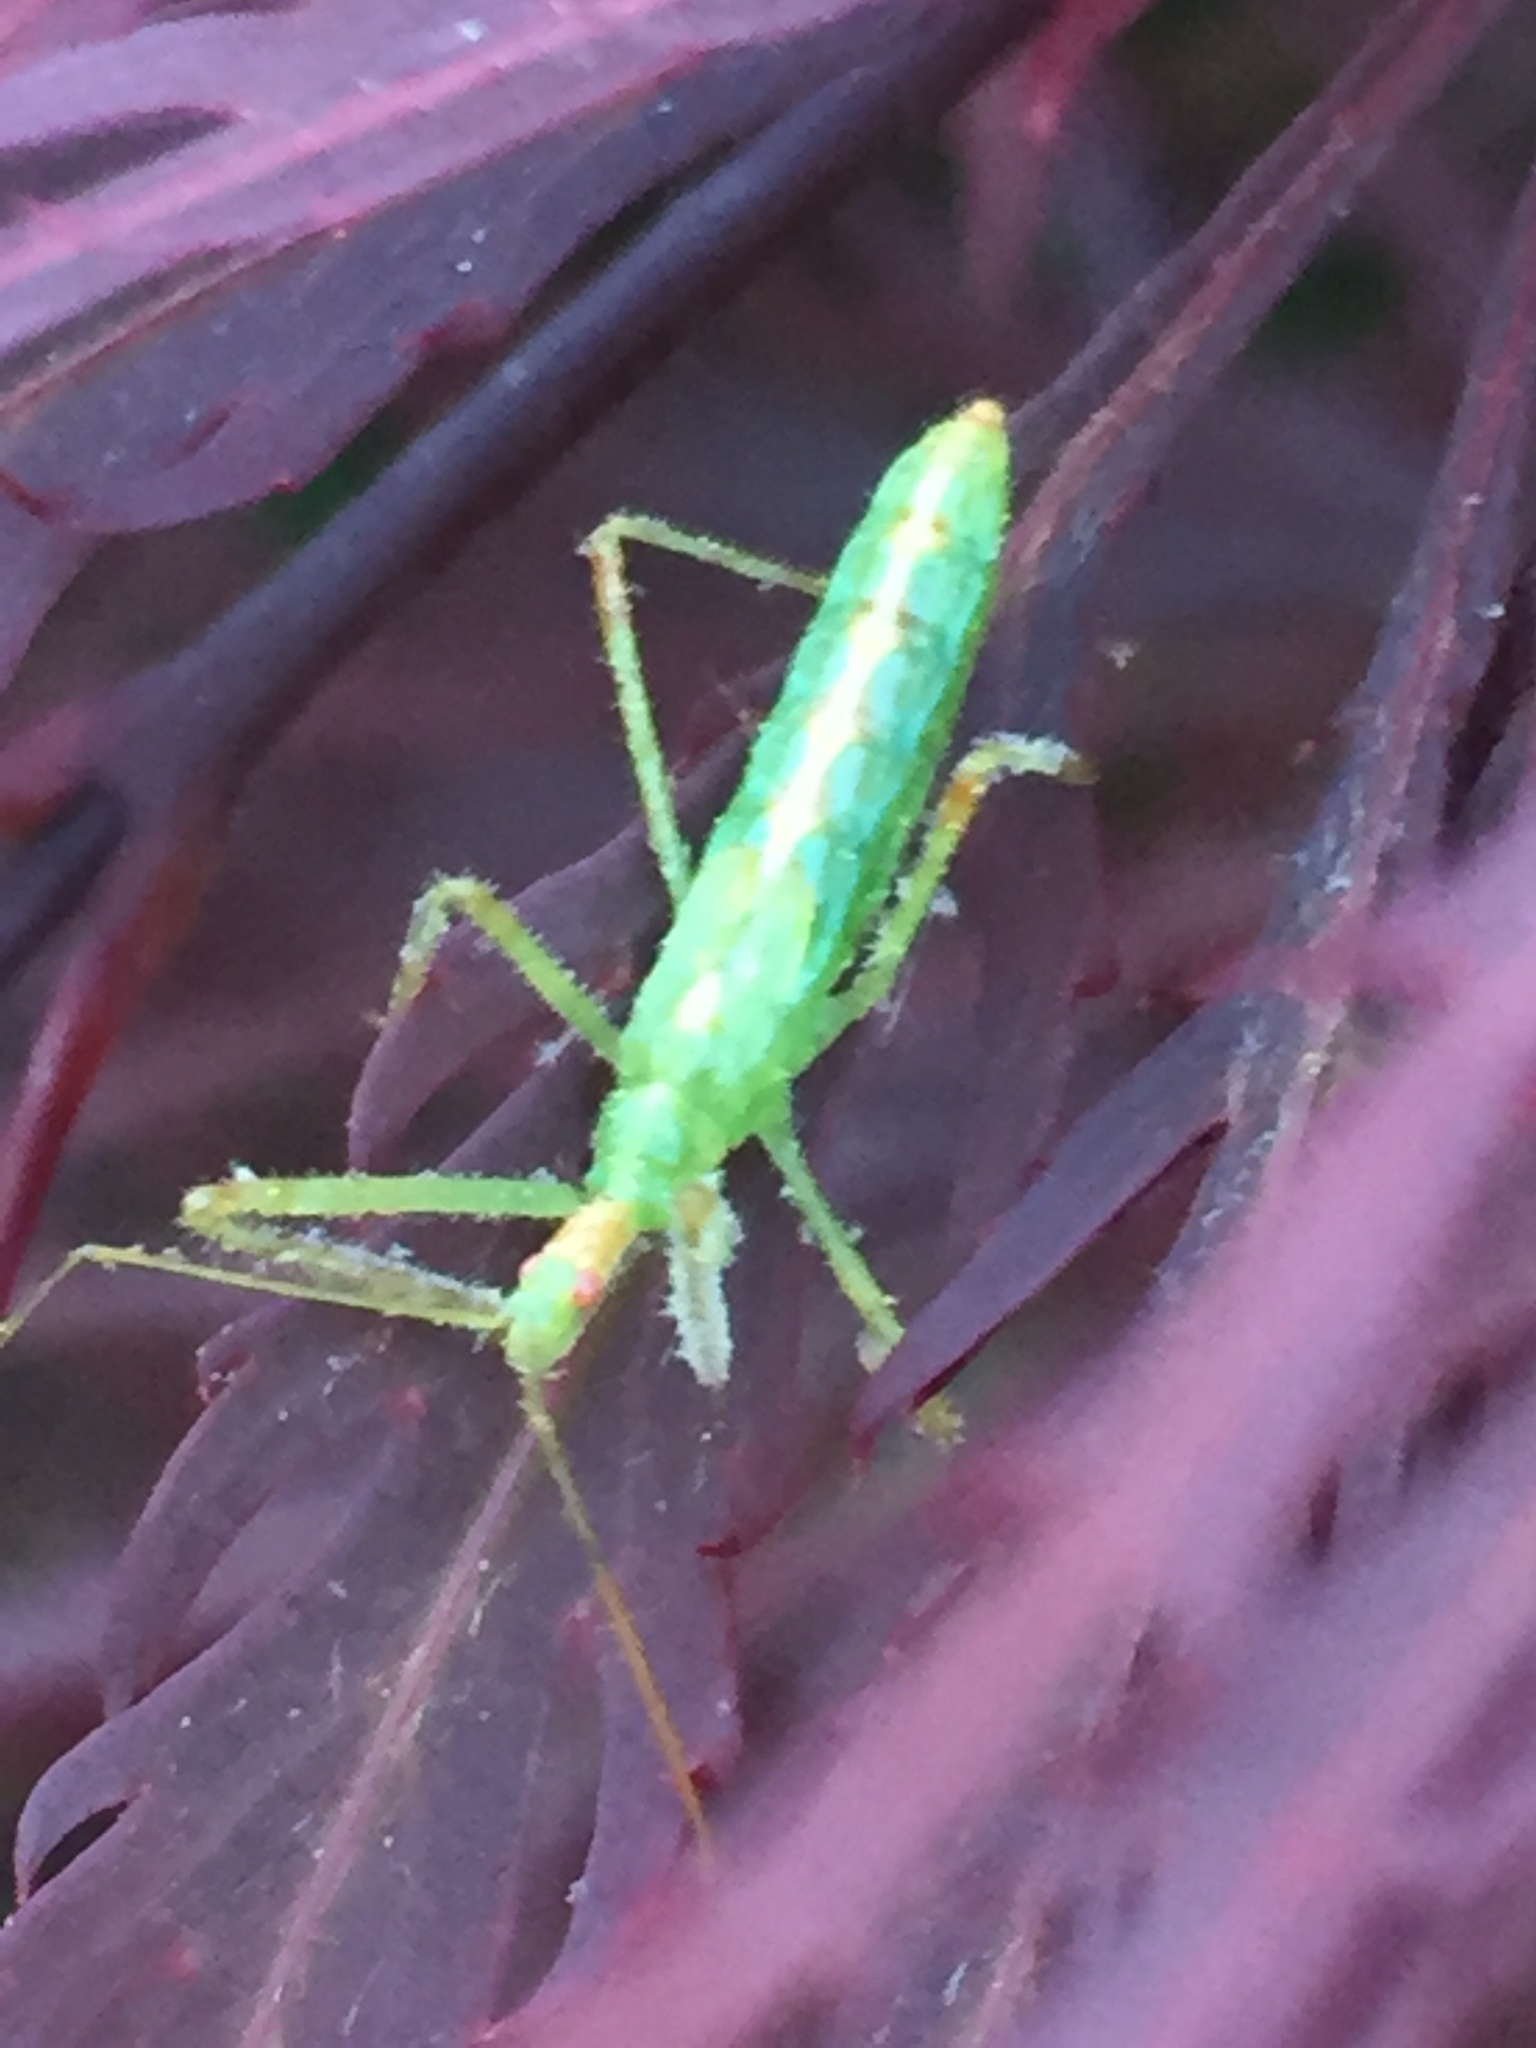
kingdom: Animalia
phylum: Arthropoda
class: Insecta
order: Hemiptera
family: Reduviidae
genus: Zelus
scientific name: Zelus luridus
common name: Pale green assassin bug
